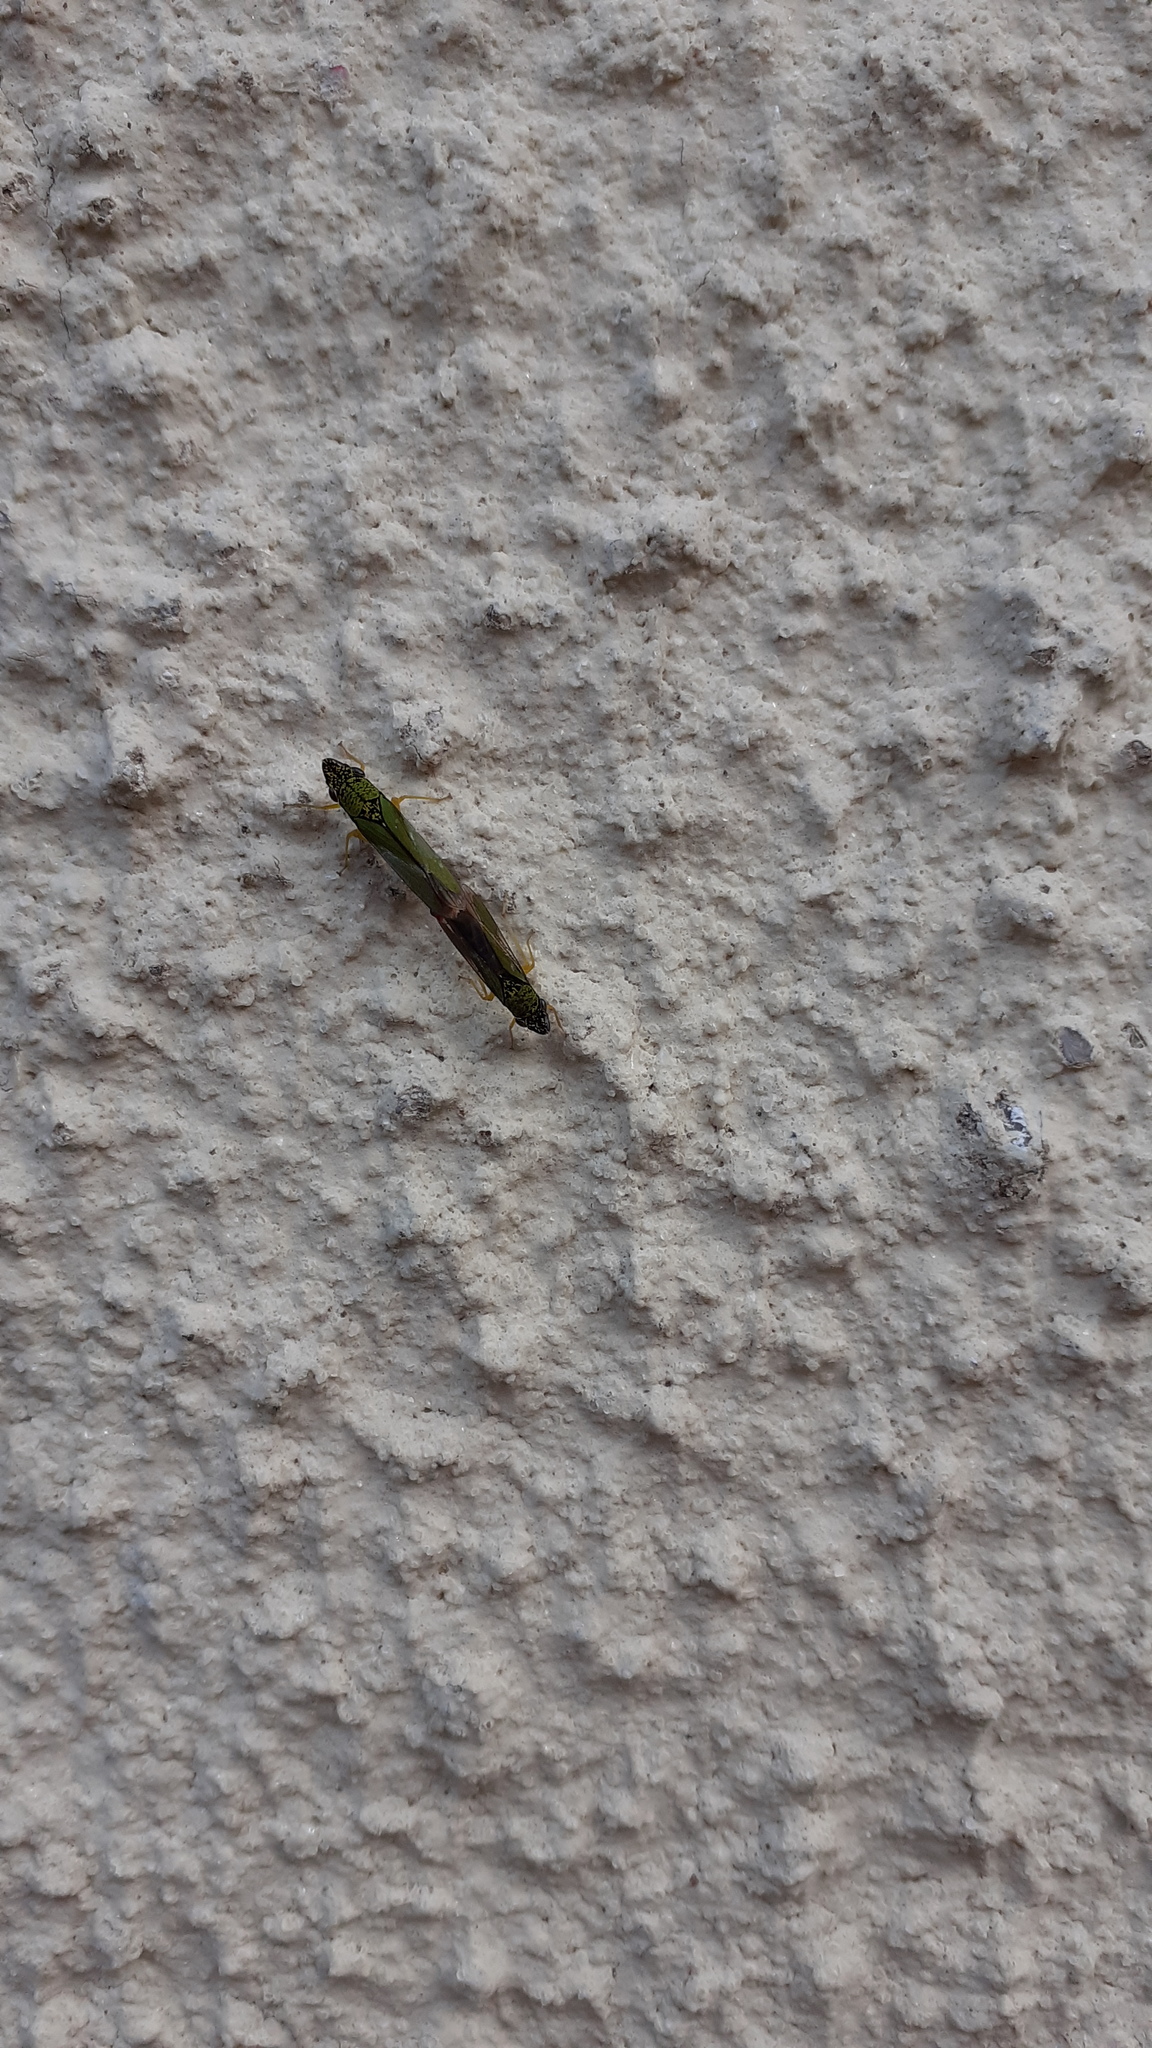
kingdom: Animalia
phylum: Arthropoda
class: Insecta
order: Hemiptera
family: Cicadellidae
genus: Acrogonia
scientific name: Acrogonia virescens
